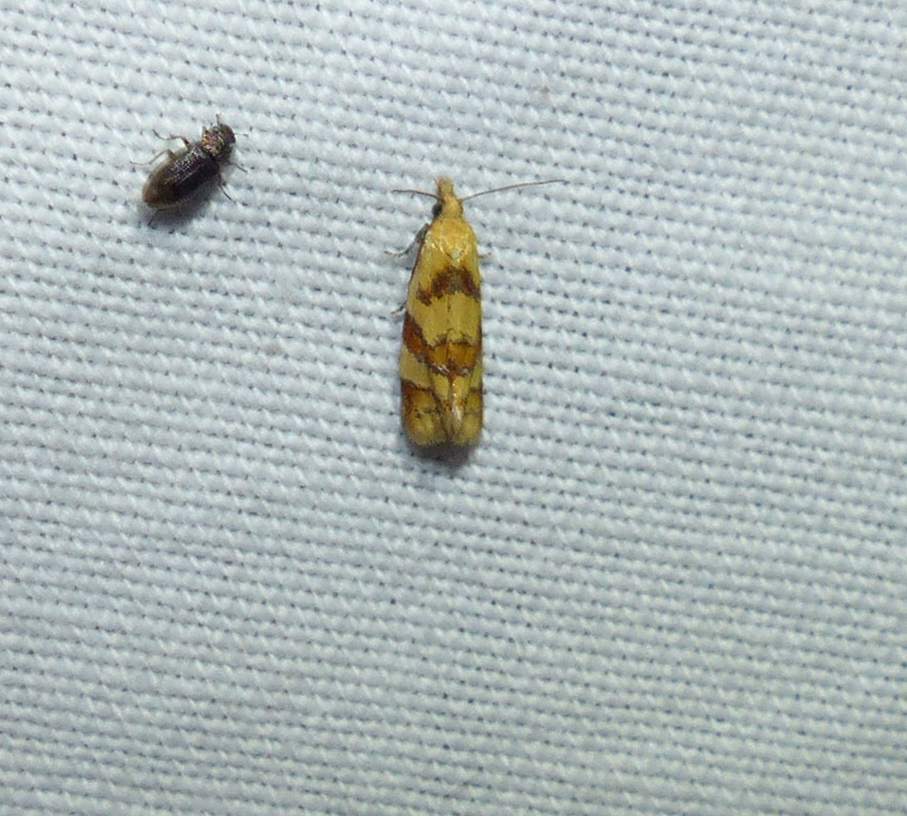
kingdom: Animalia
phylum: Arthropoda
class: Insecta
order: Lepidoptera
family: Tortricidae
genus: Phtheochroa
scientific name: Phtheochroa vitellinana
